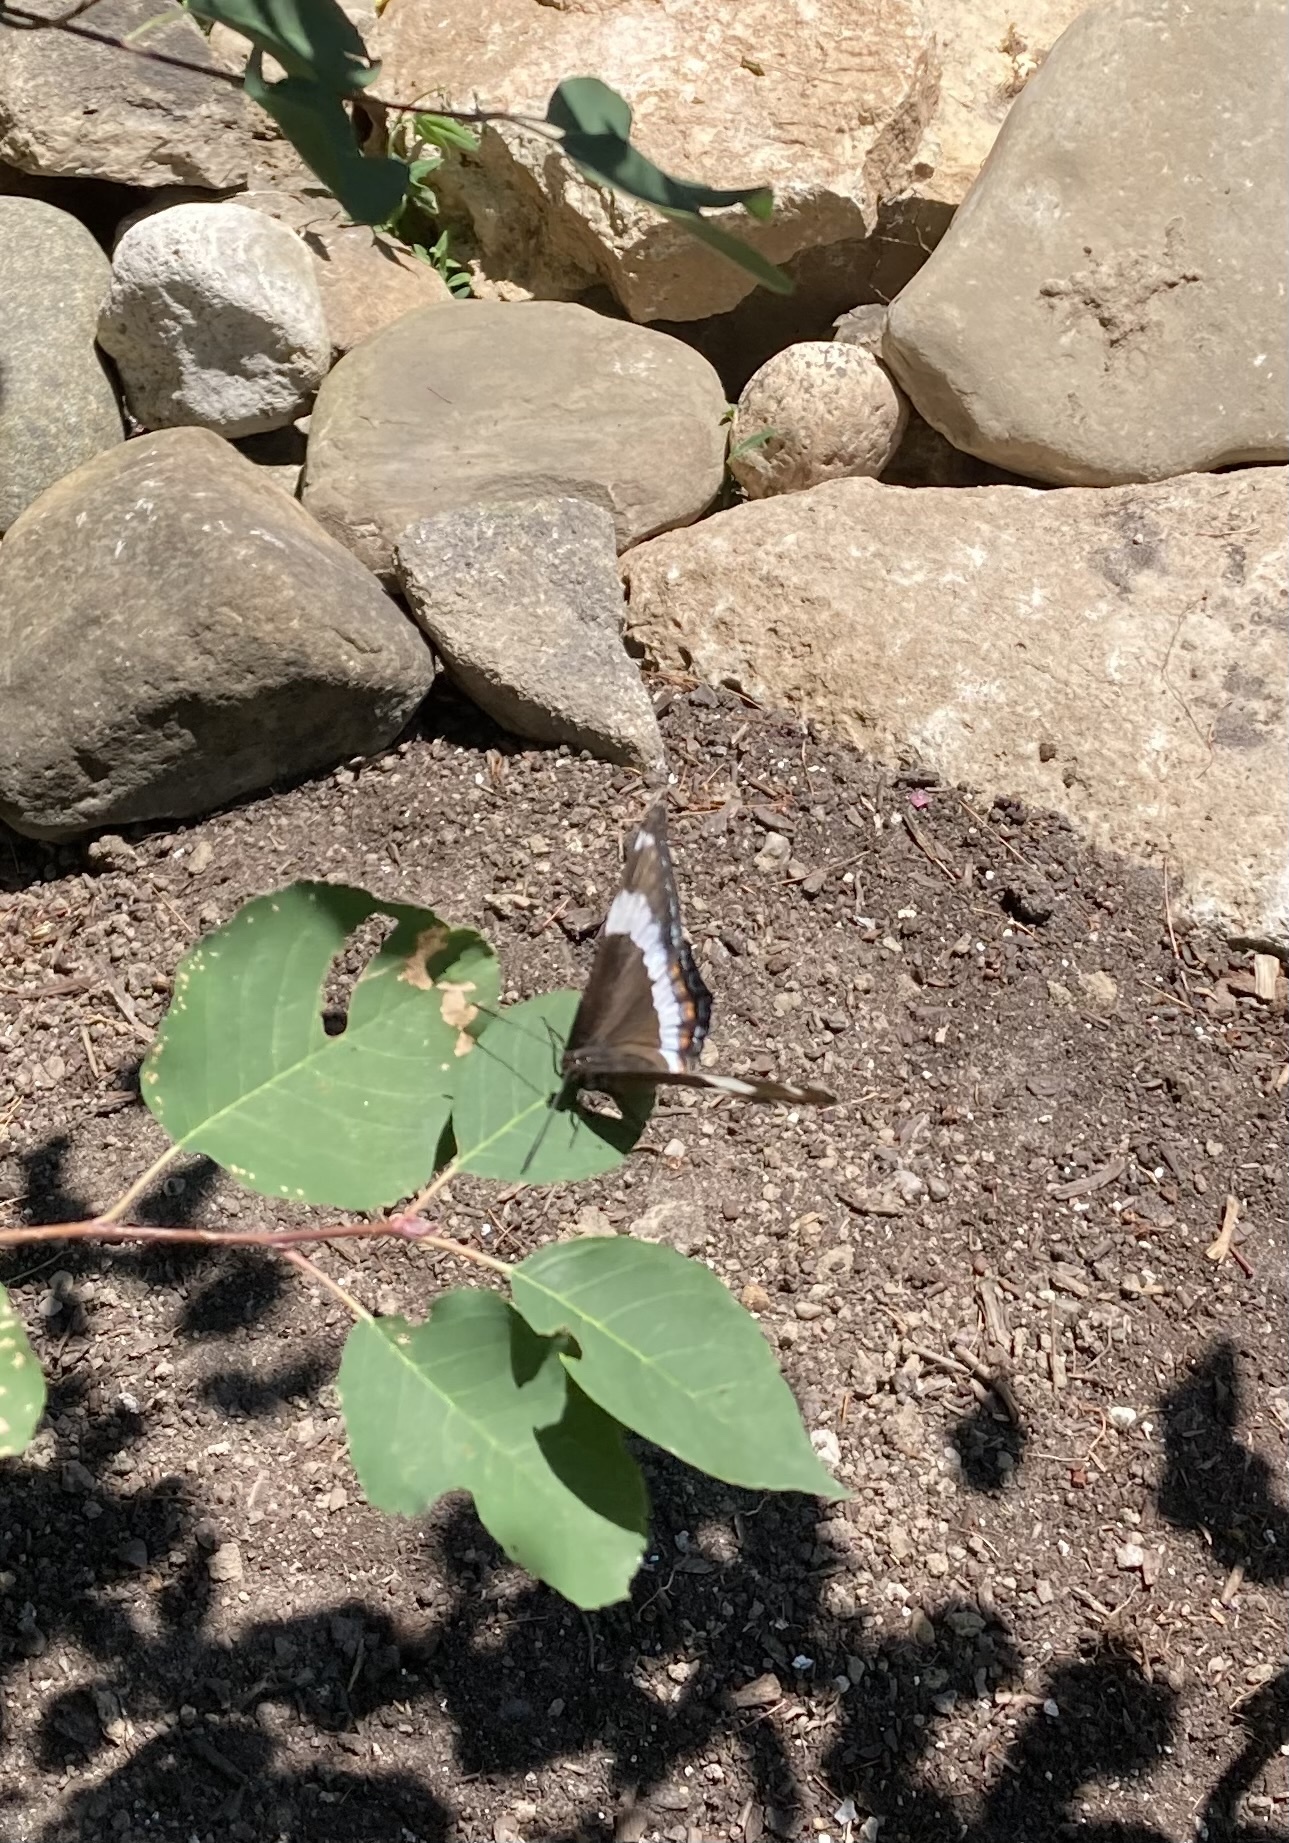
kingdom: Animalia
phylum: Arthropoda
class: Insecta
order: Lepidoptera
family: Nymphalidae
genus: Limenitis
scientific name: Limenitis arthemis
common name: Red-spotted admiral
